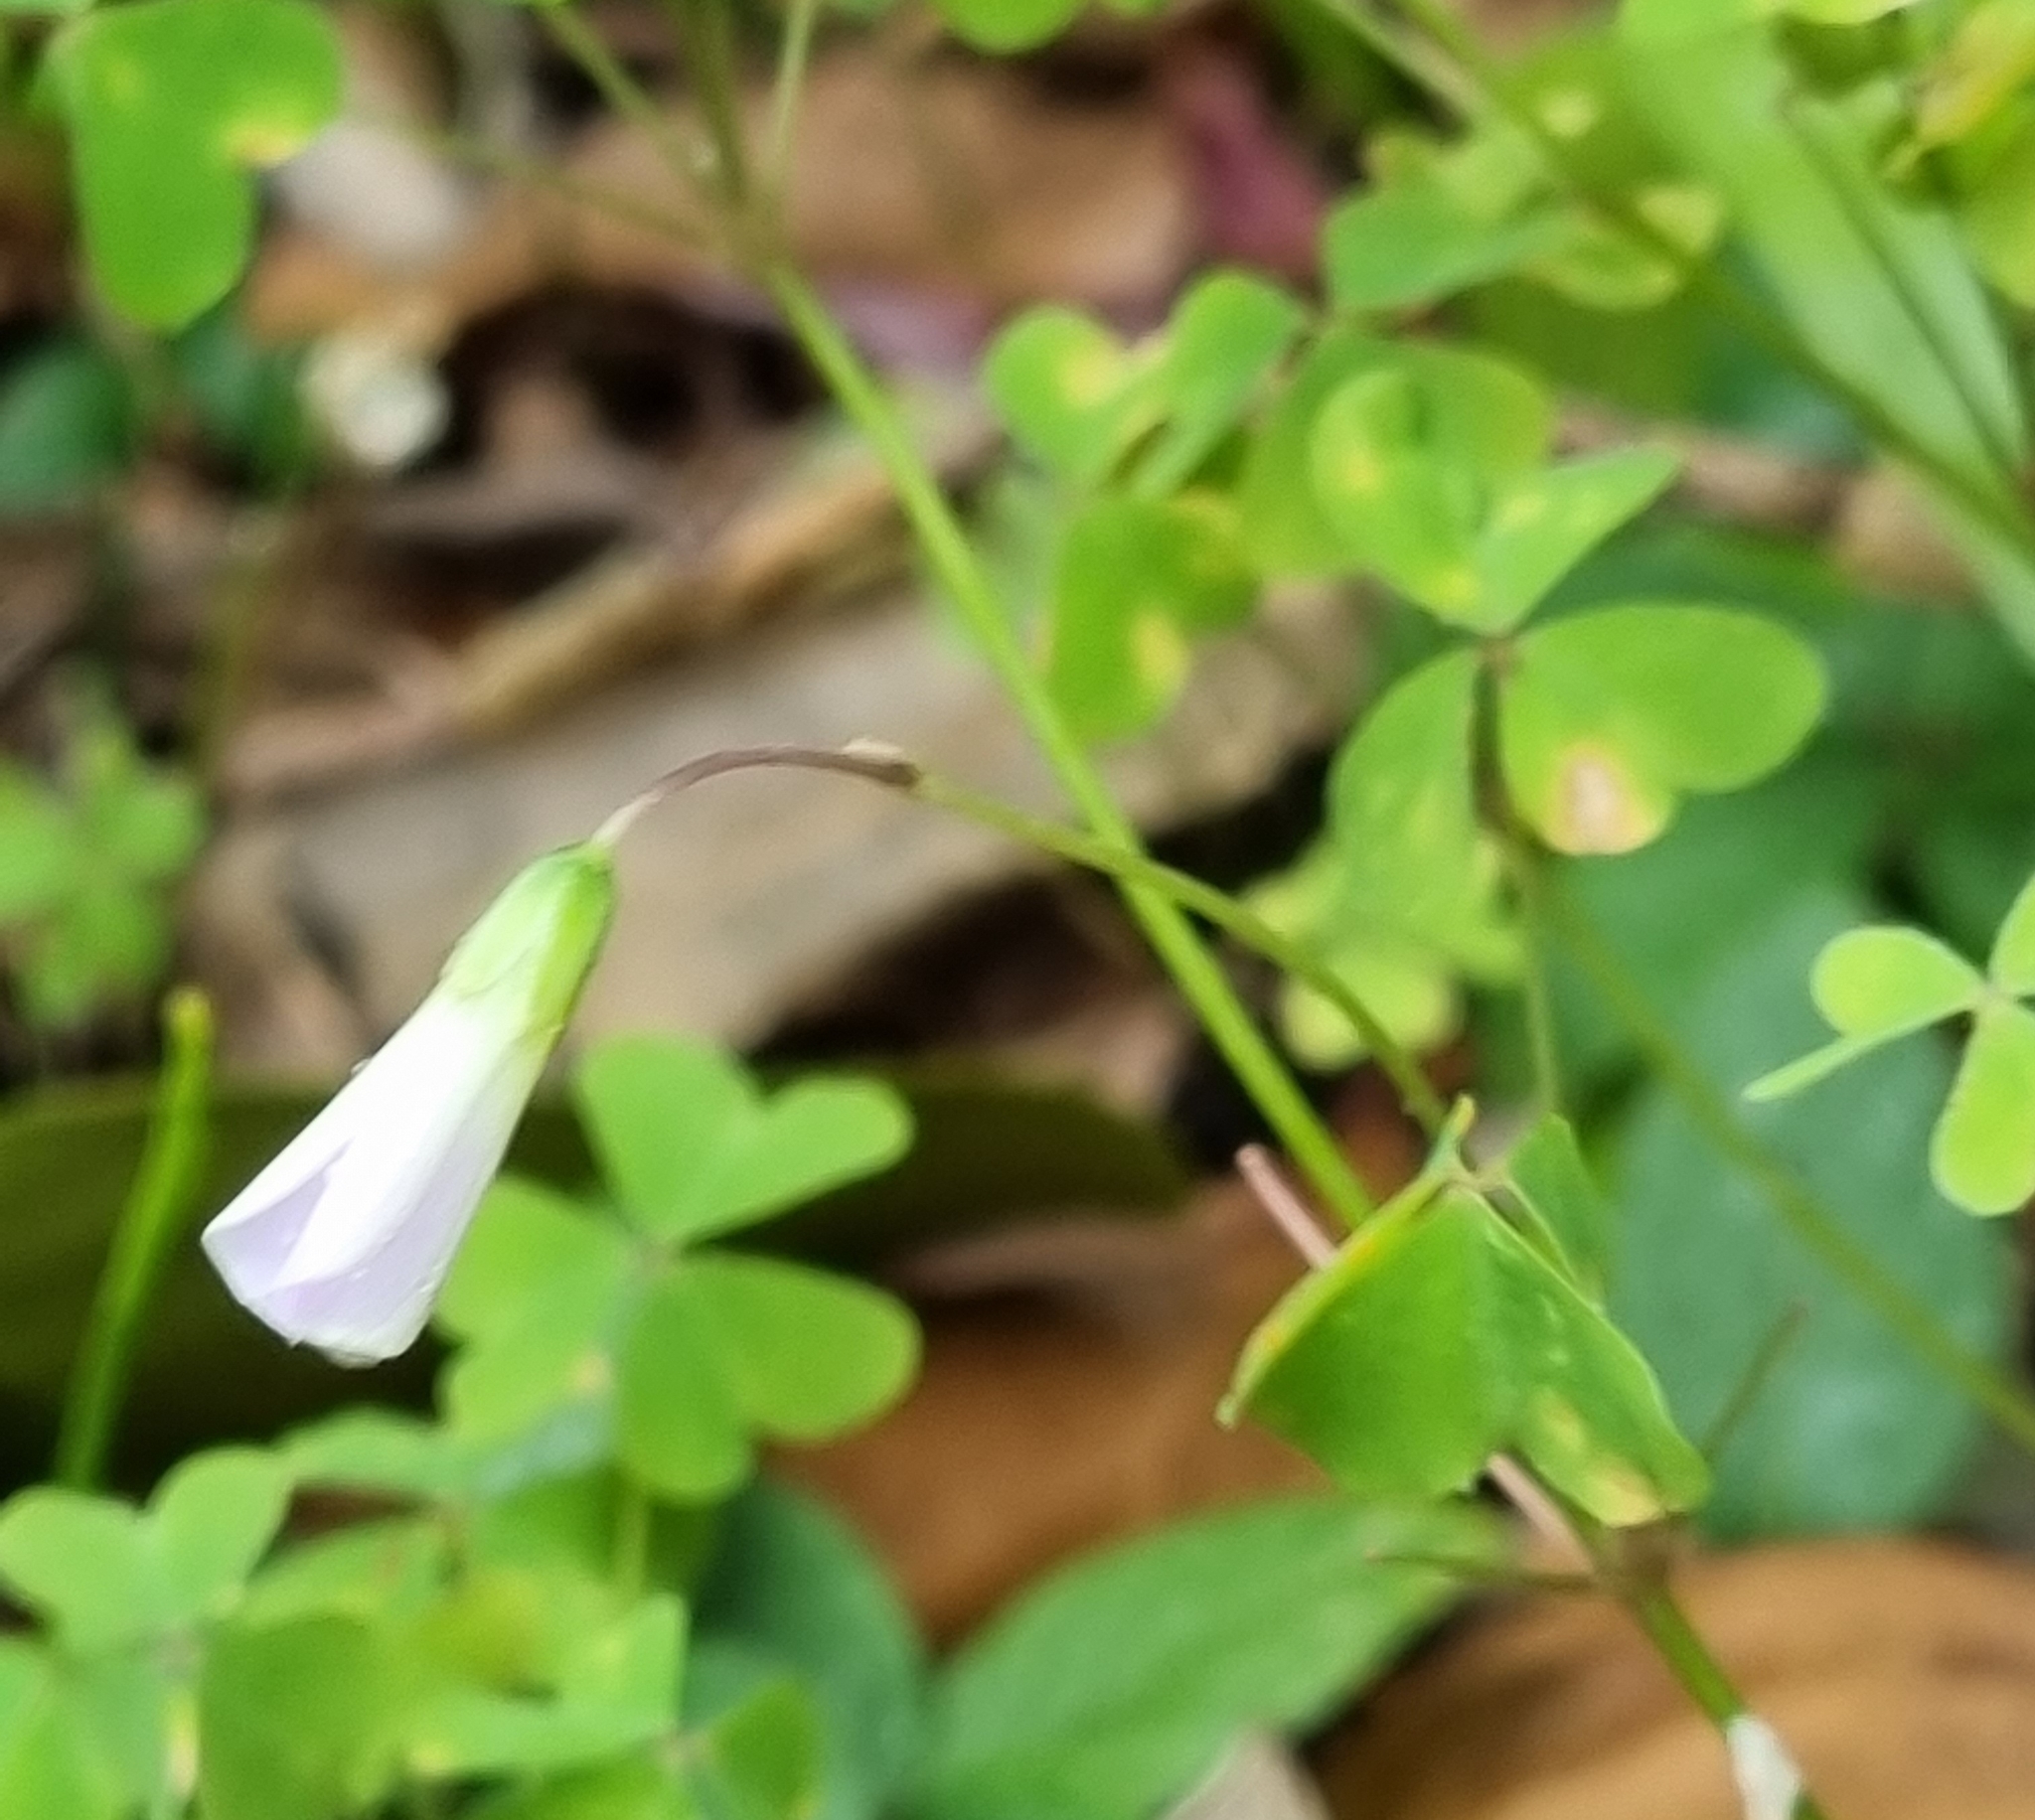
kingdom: Plantae
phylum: Tracheophyta
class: Magnoliopsida
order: Oxalidales
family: Oxalidaceae
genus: Oxalis
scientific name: Oxalis incarnata
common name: Pale pink-sorrel
